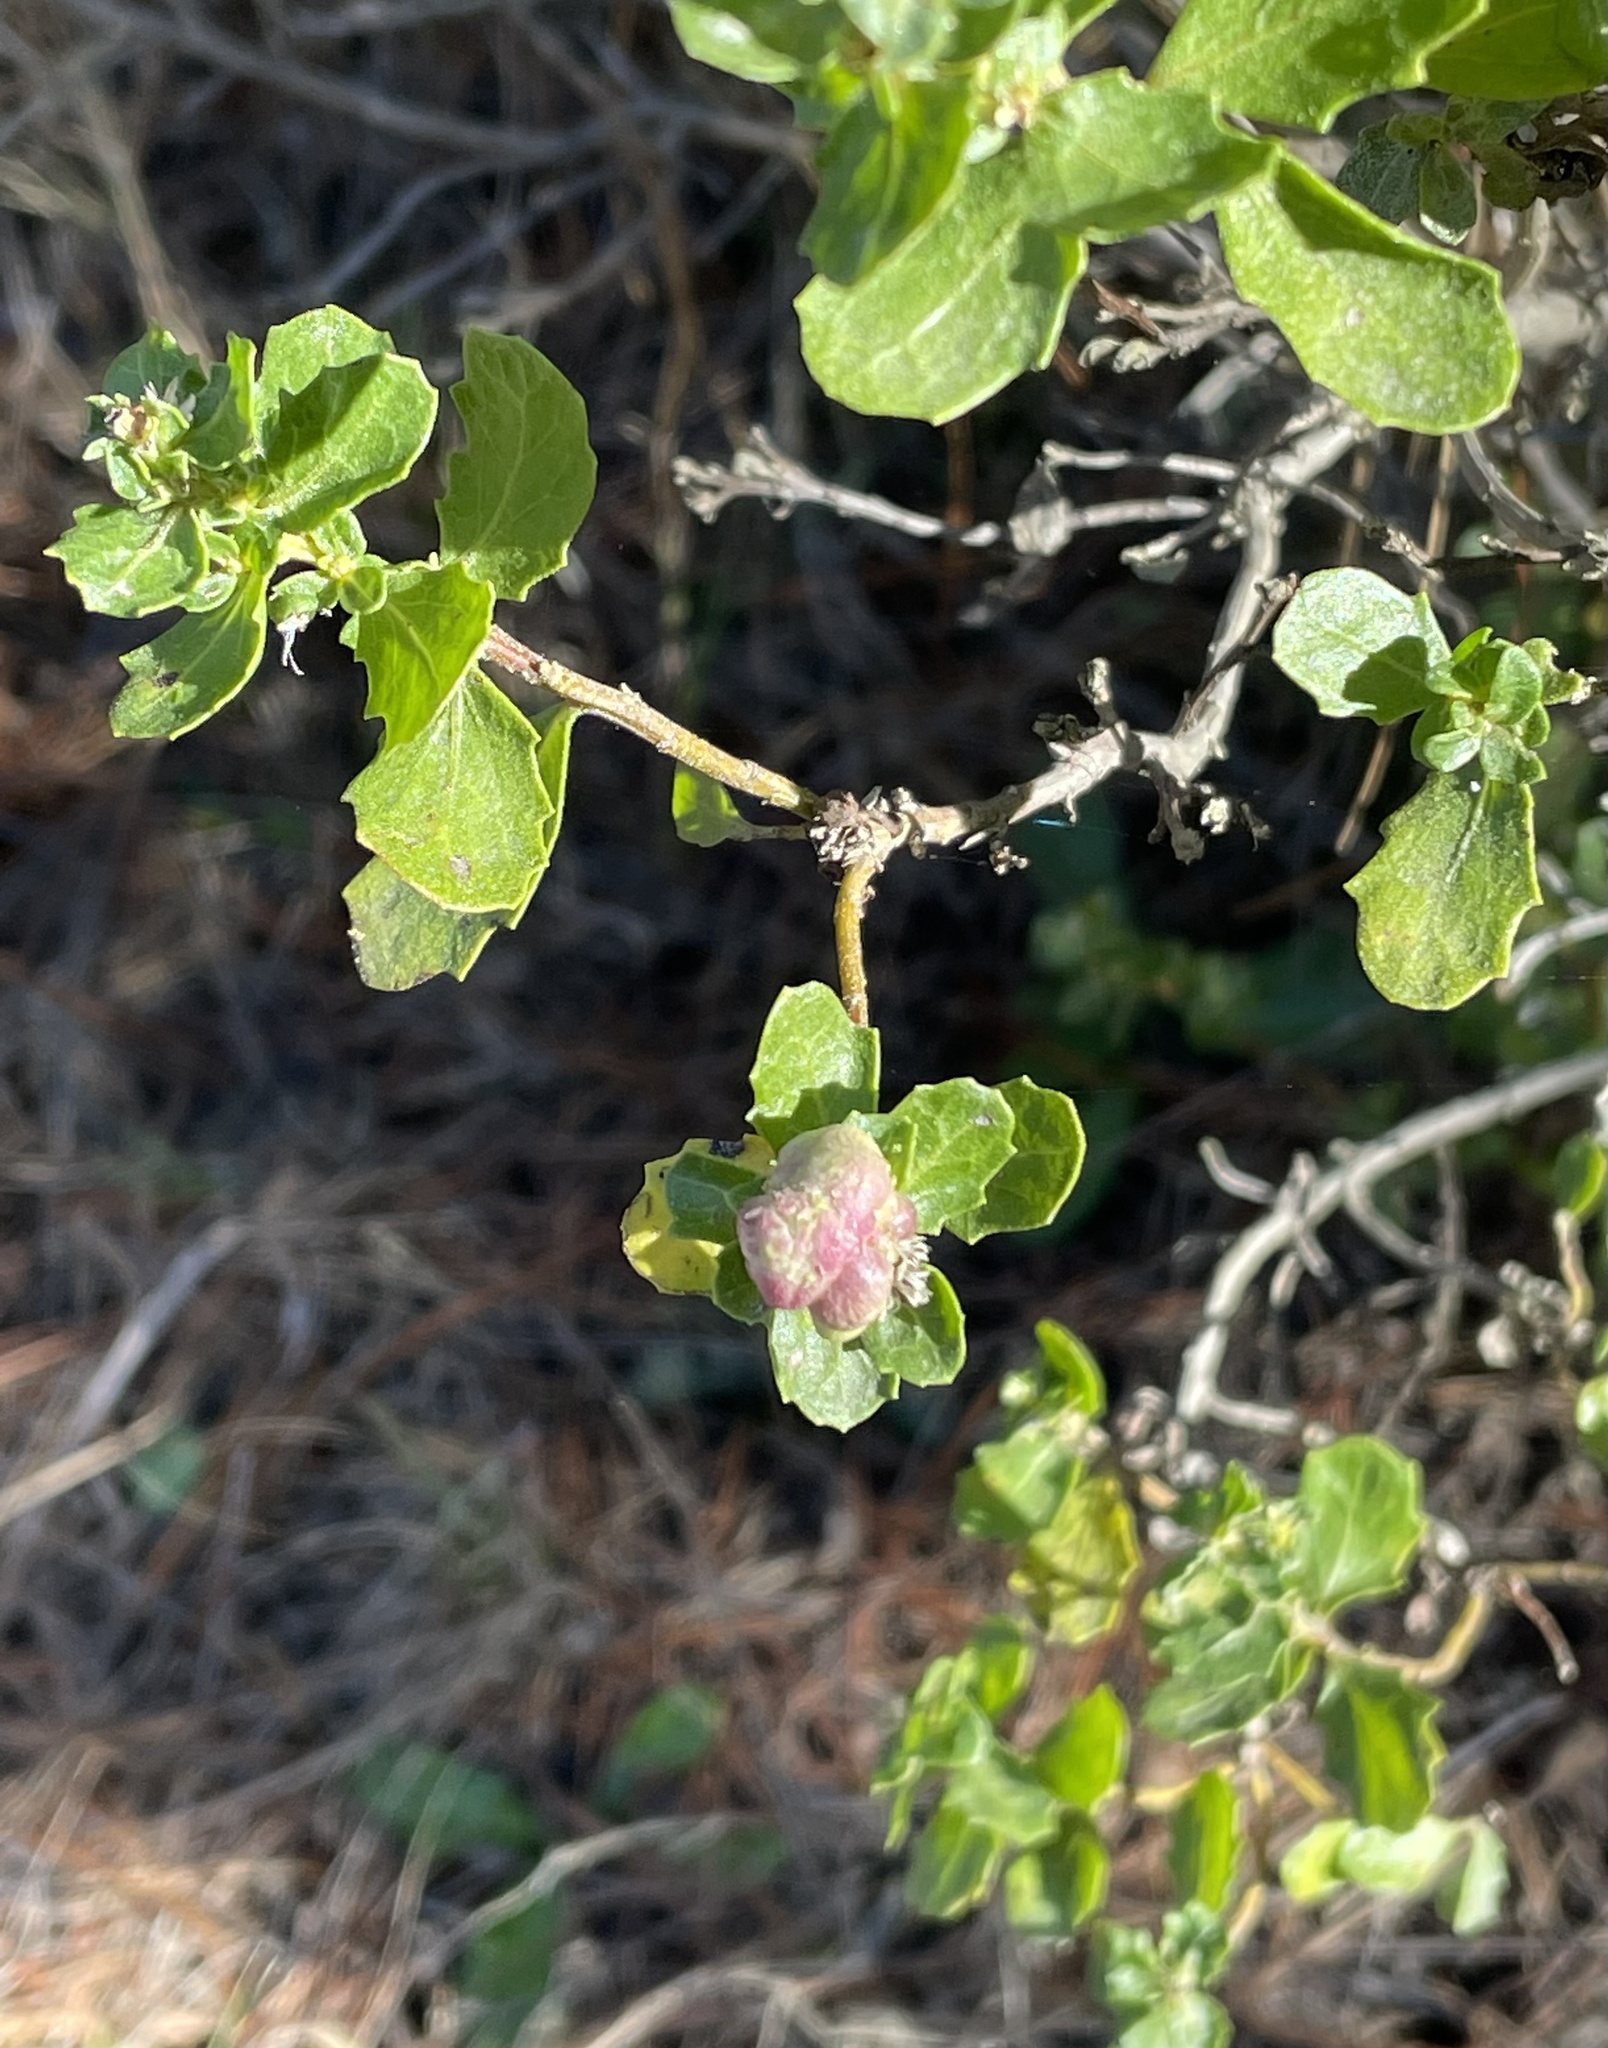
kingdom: Animalia
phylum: Arthropoda
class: Insecta
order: Diptera
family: Cecidomyiidae
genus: Rhopalomyia
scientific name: Rhopalomyia californica
